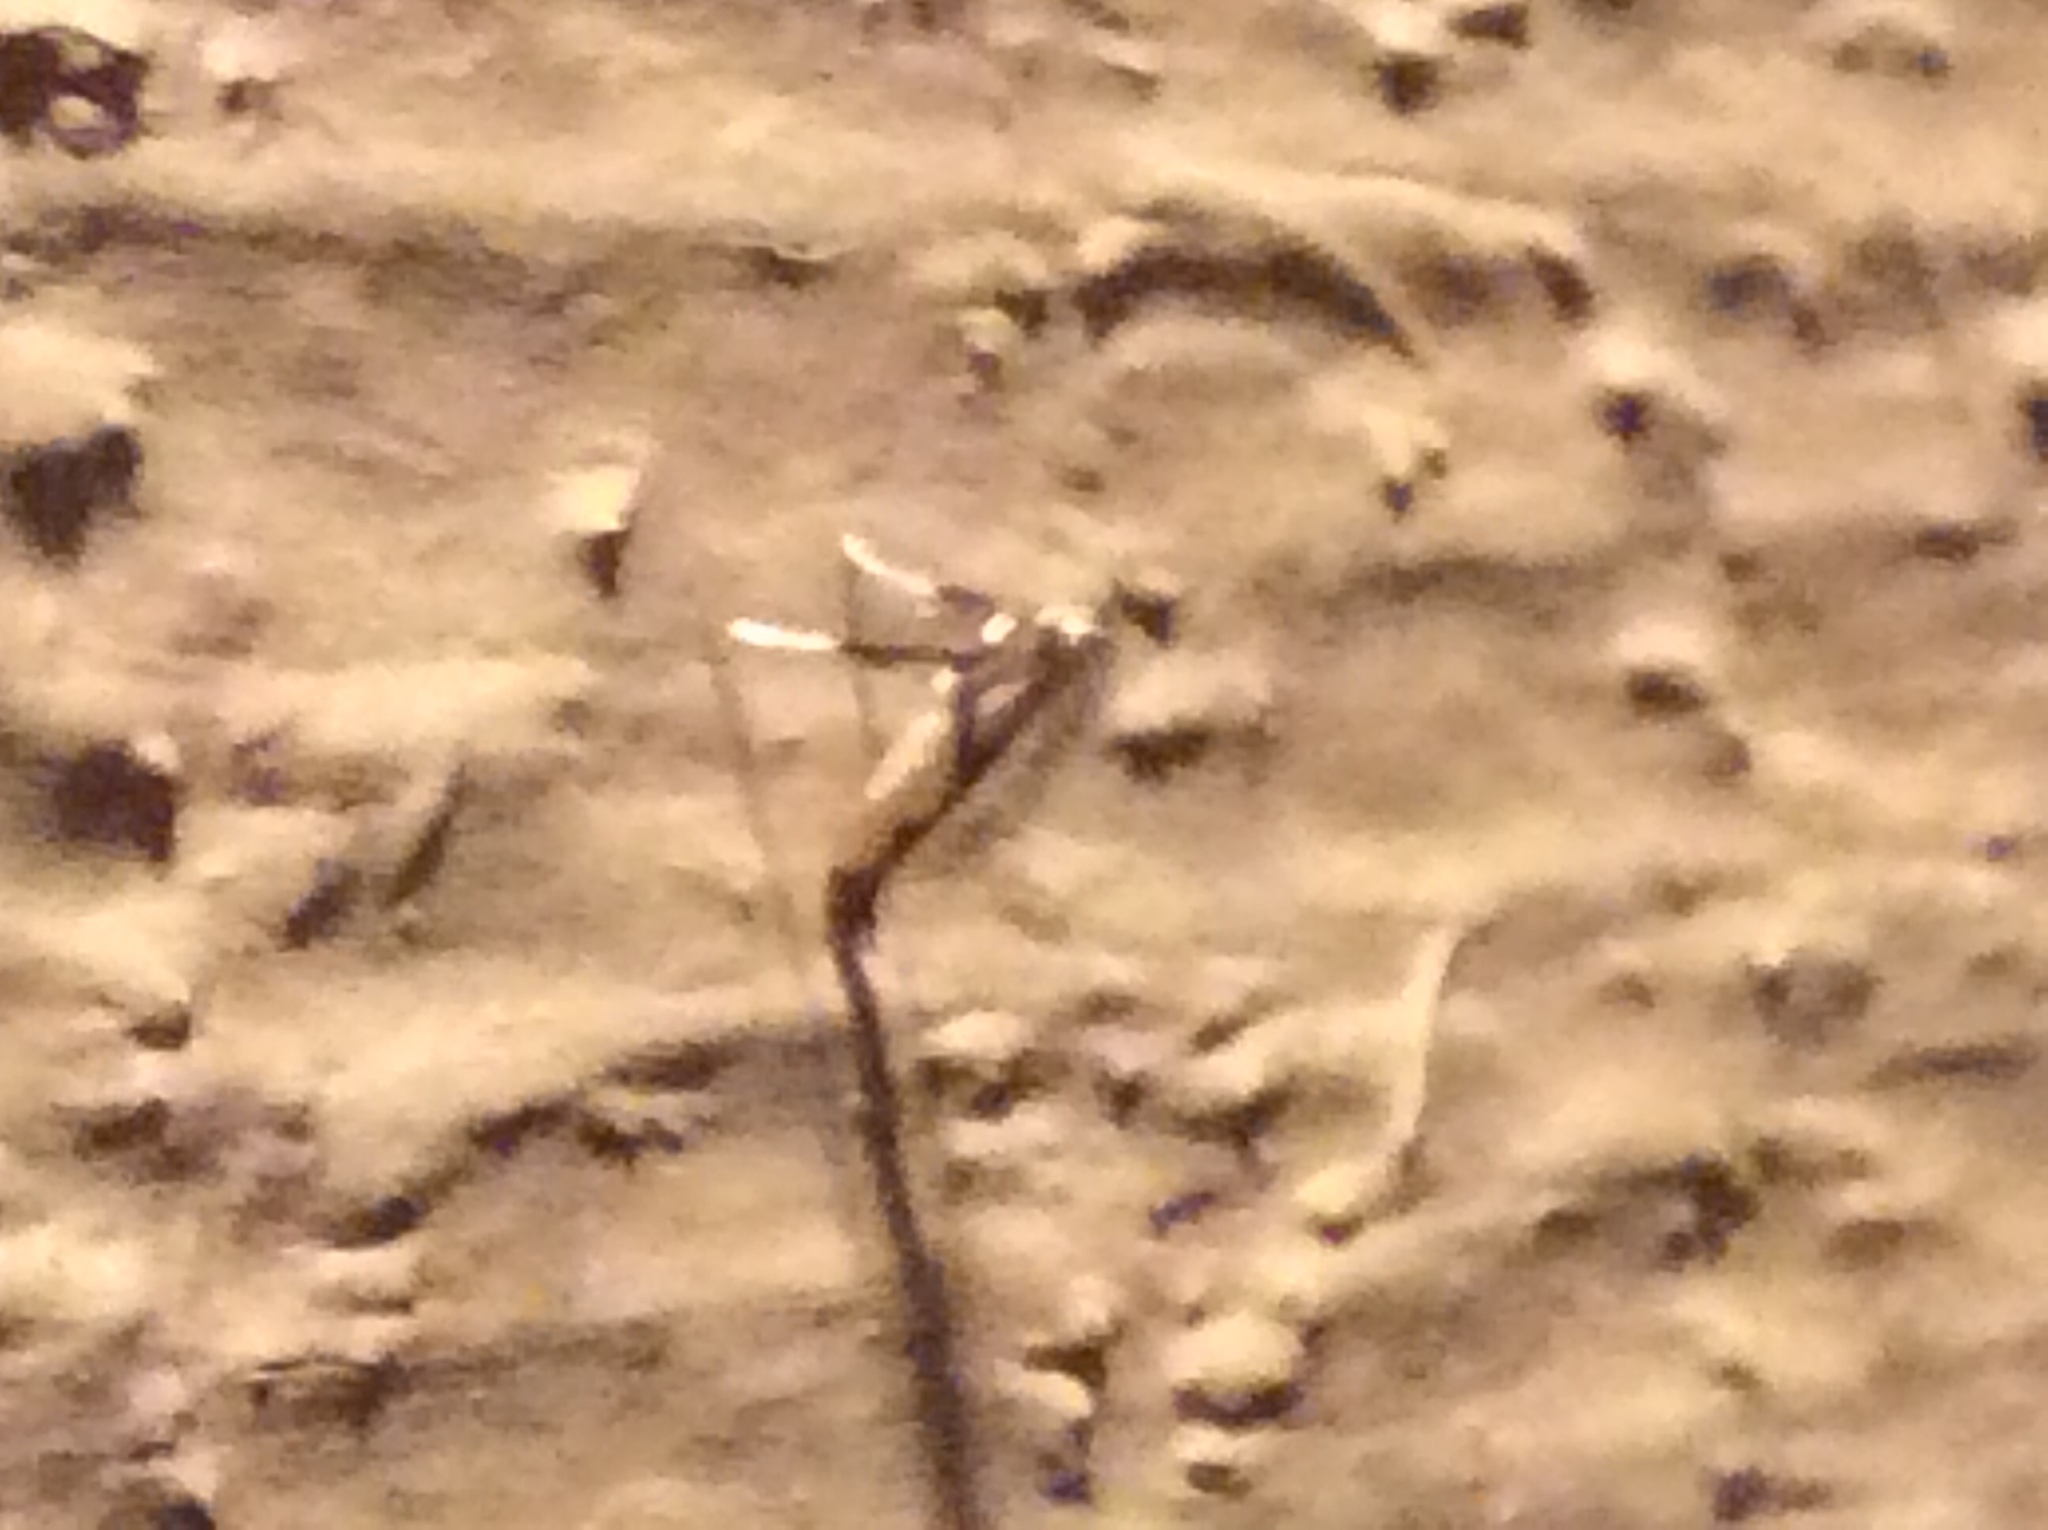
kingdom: Animalia
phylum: Arthropoda
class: Insecta
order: Lepidoptera
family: Gracillariidae
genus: Caloptilia
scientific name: Caloptilia bimaculatella
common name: Maple caloptilia moth
